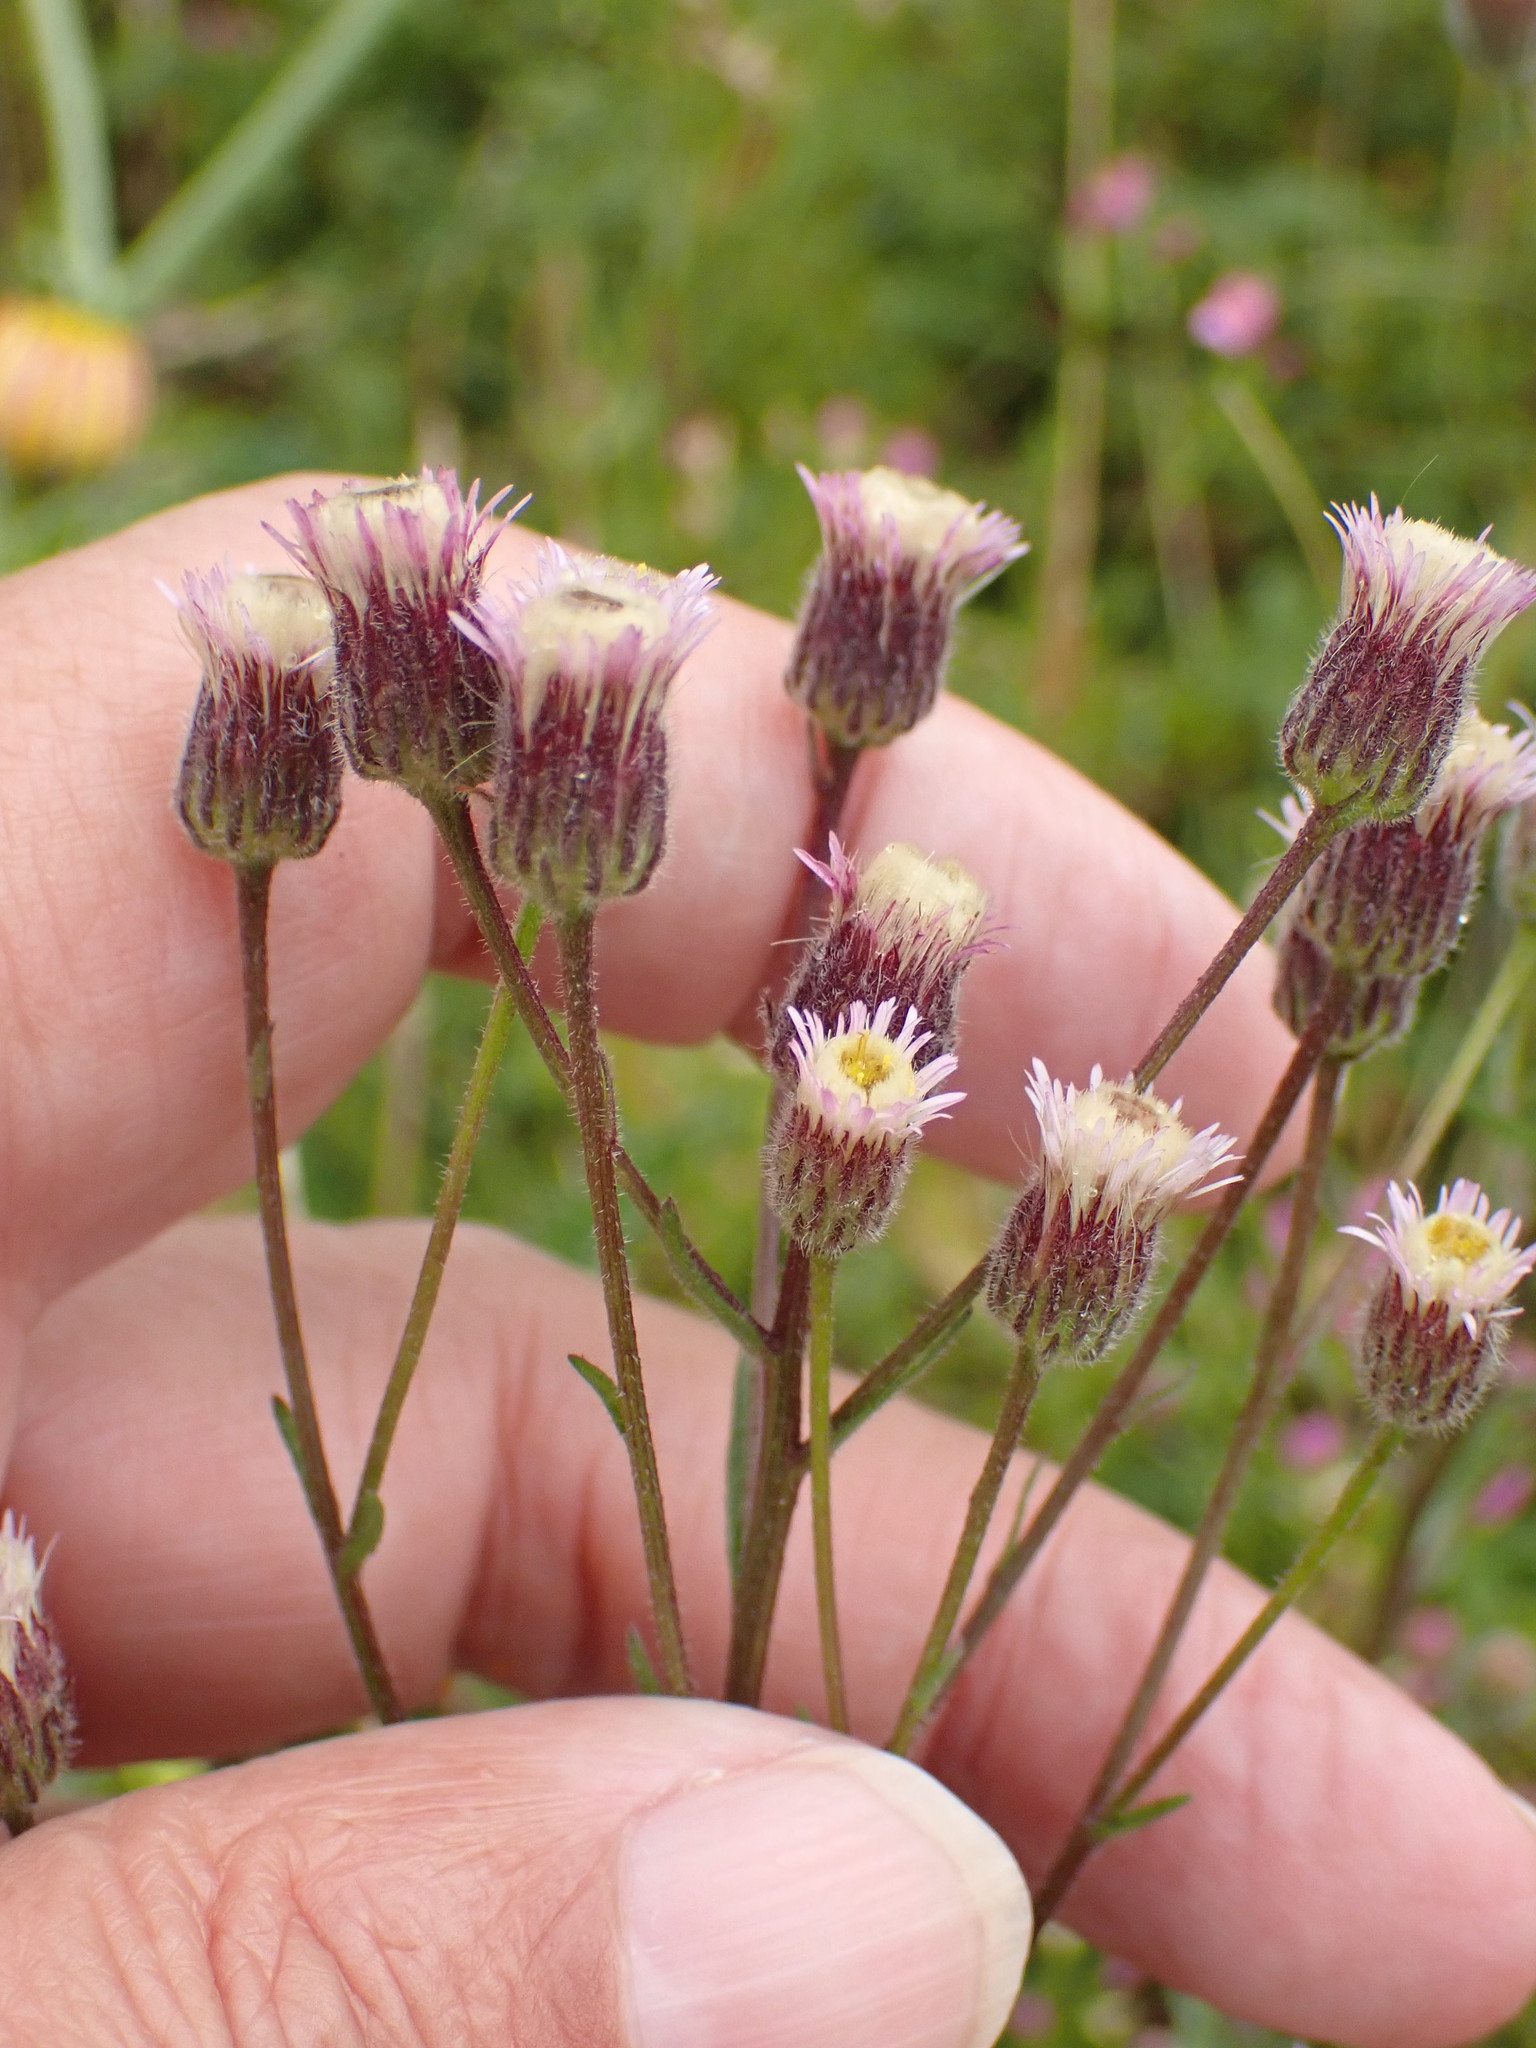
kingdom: Plantae
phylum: Tracheophyta
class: Magnoliopsida
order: Asterales
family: Asteraceae
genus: Erigeron
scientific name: Erigeron acris
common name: Blue fleabane
